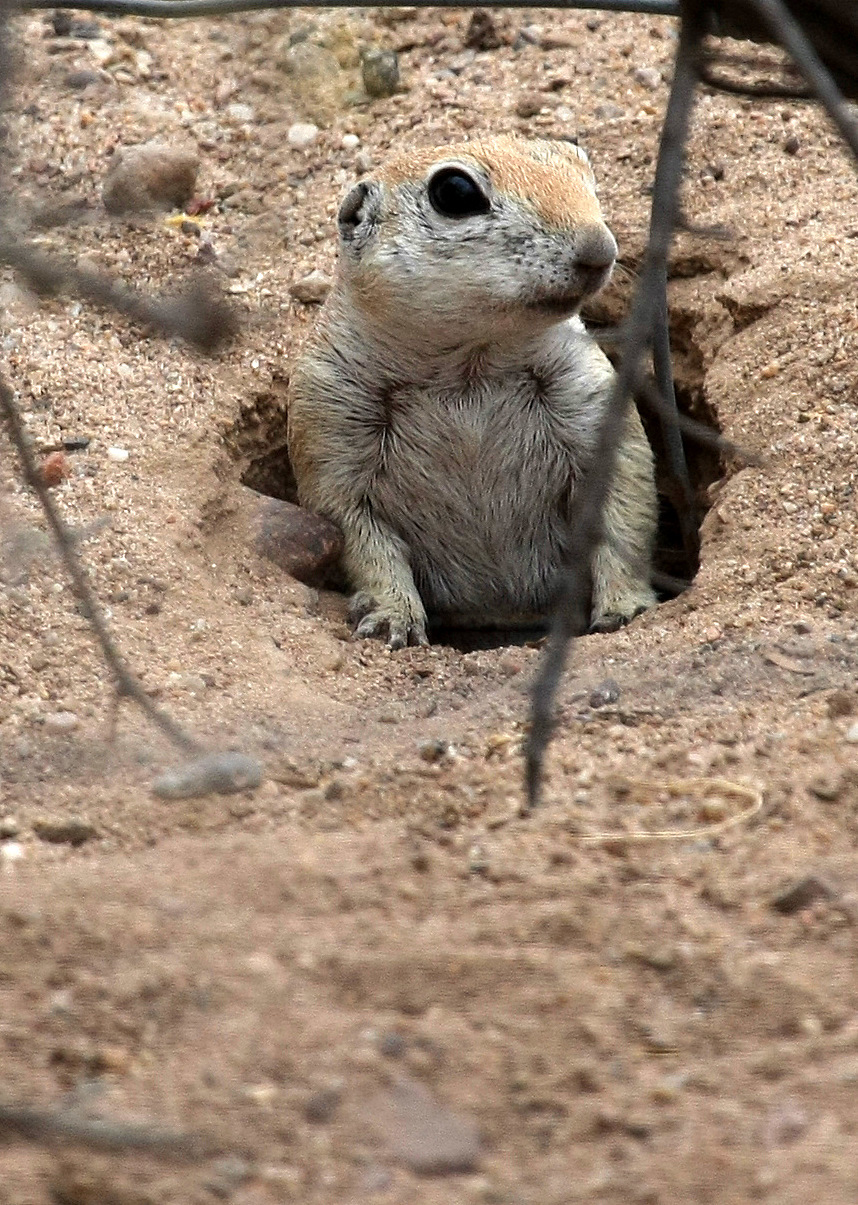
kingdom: Animalia
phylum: Chordata
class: Mammalia
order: Rodentia
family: Sciuridae
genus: Xerospermophilus
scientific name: Xerospermophilus tereticaudus
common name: Round-tailed ground squirrel
